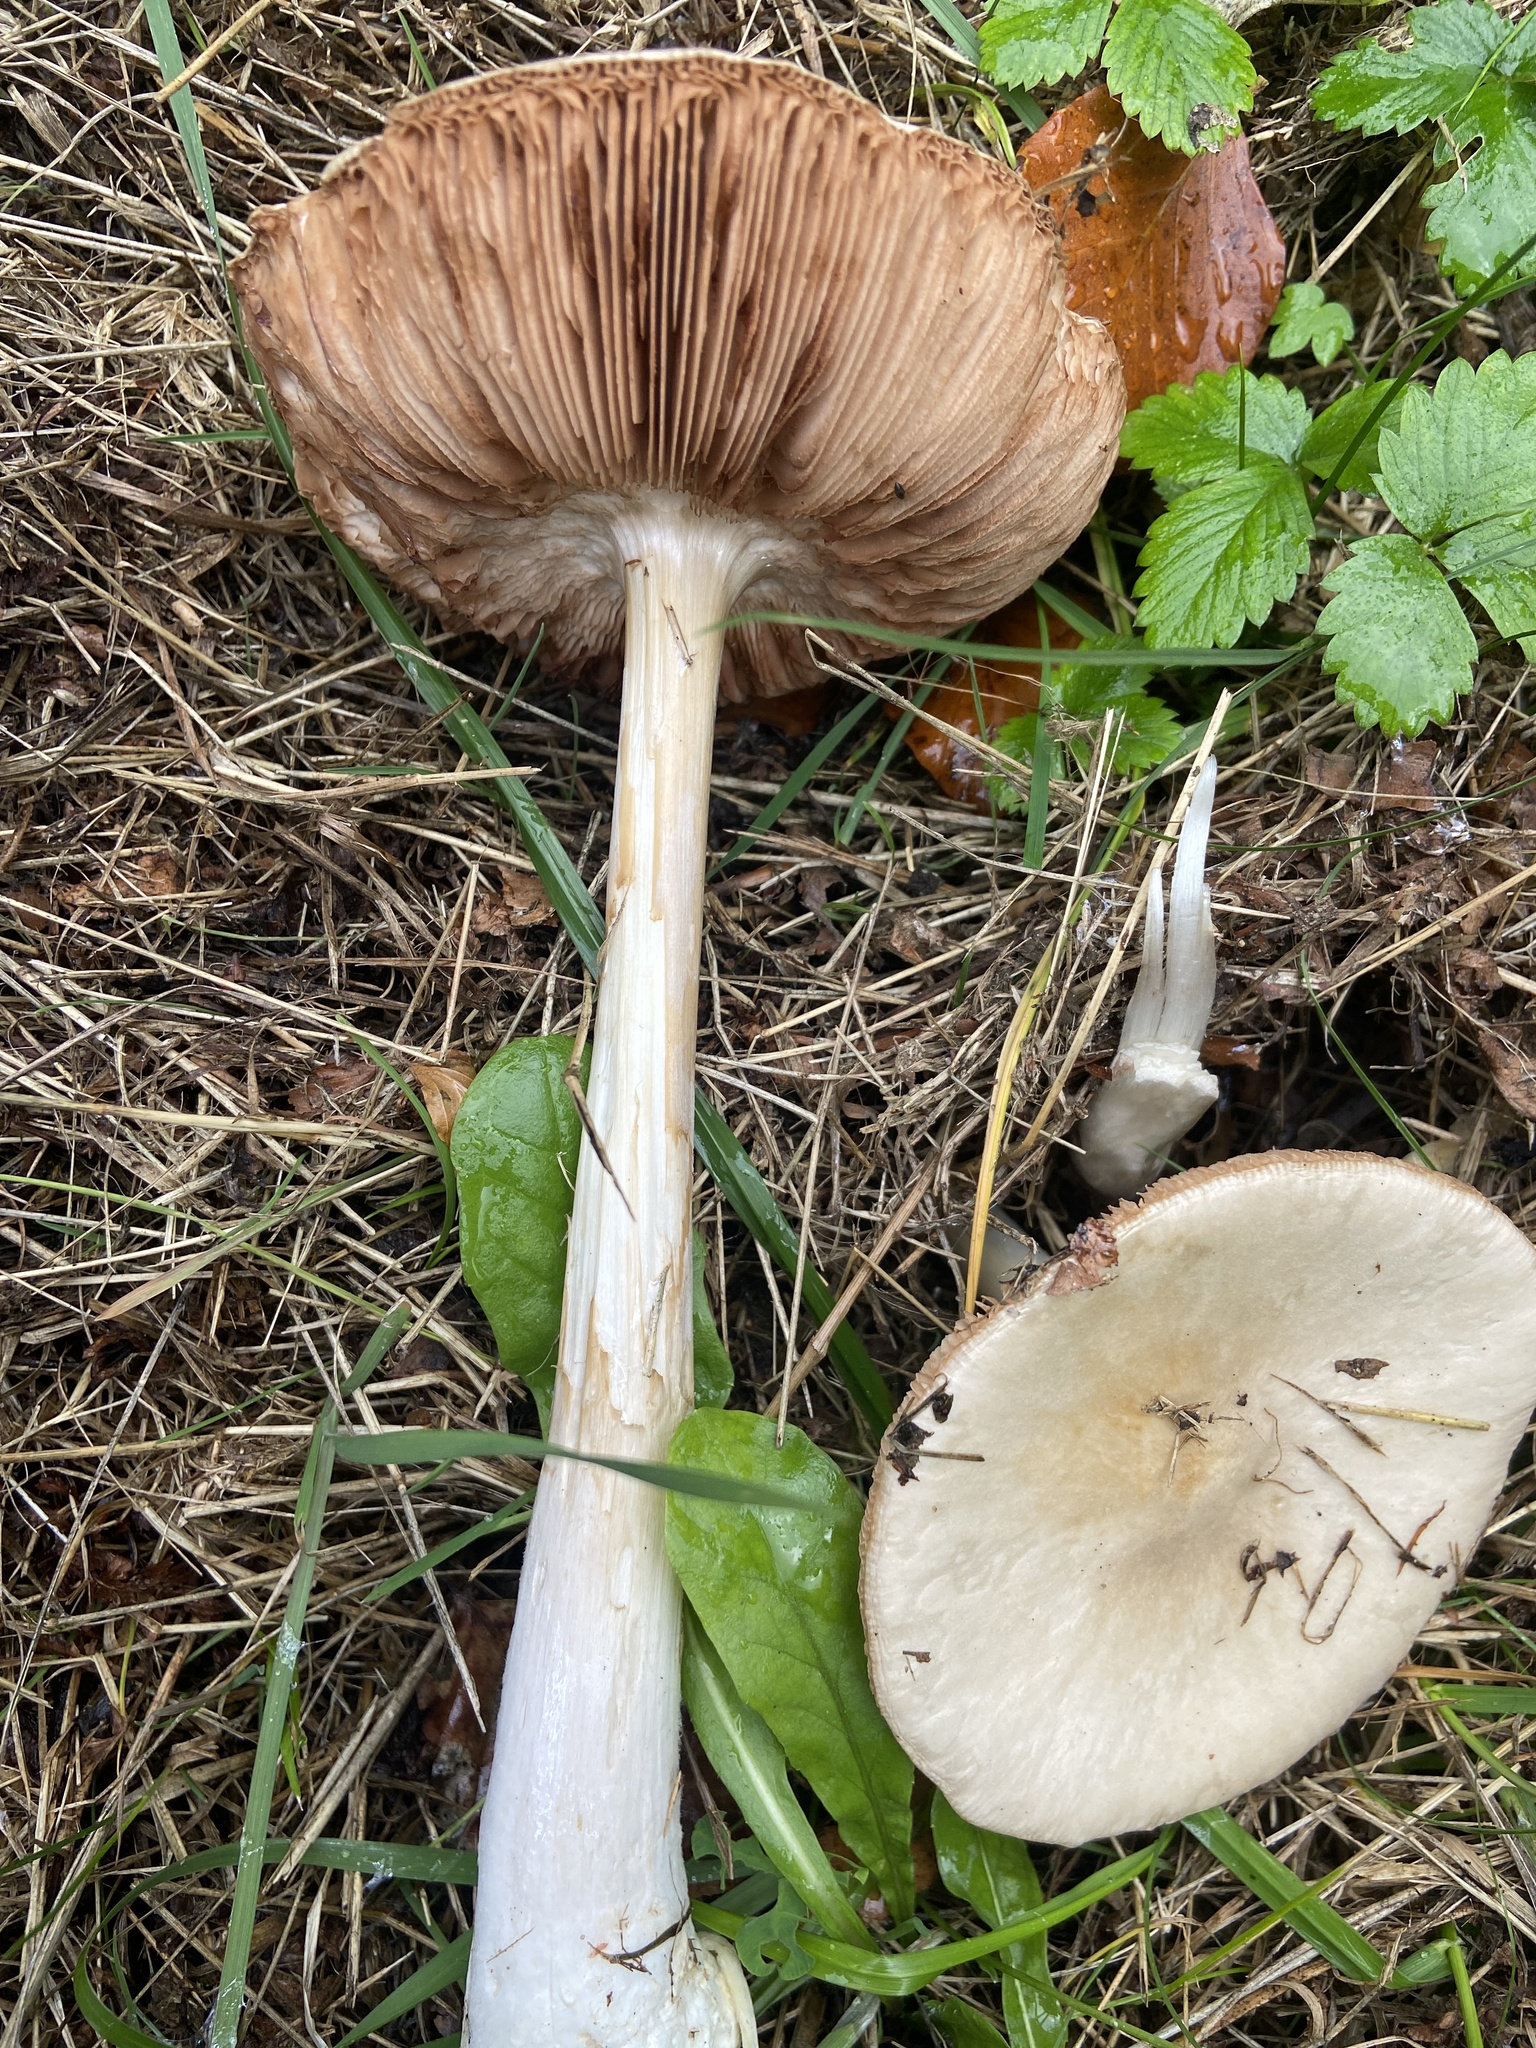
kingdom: Fungi
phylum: Basidiomycota
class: Agaricomycetes
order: Agaricales
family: Pluteaceae
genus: Volvopluteus
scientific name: Volvopluteus gloiocephalus
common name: Stubble rosegill
